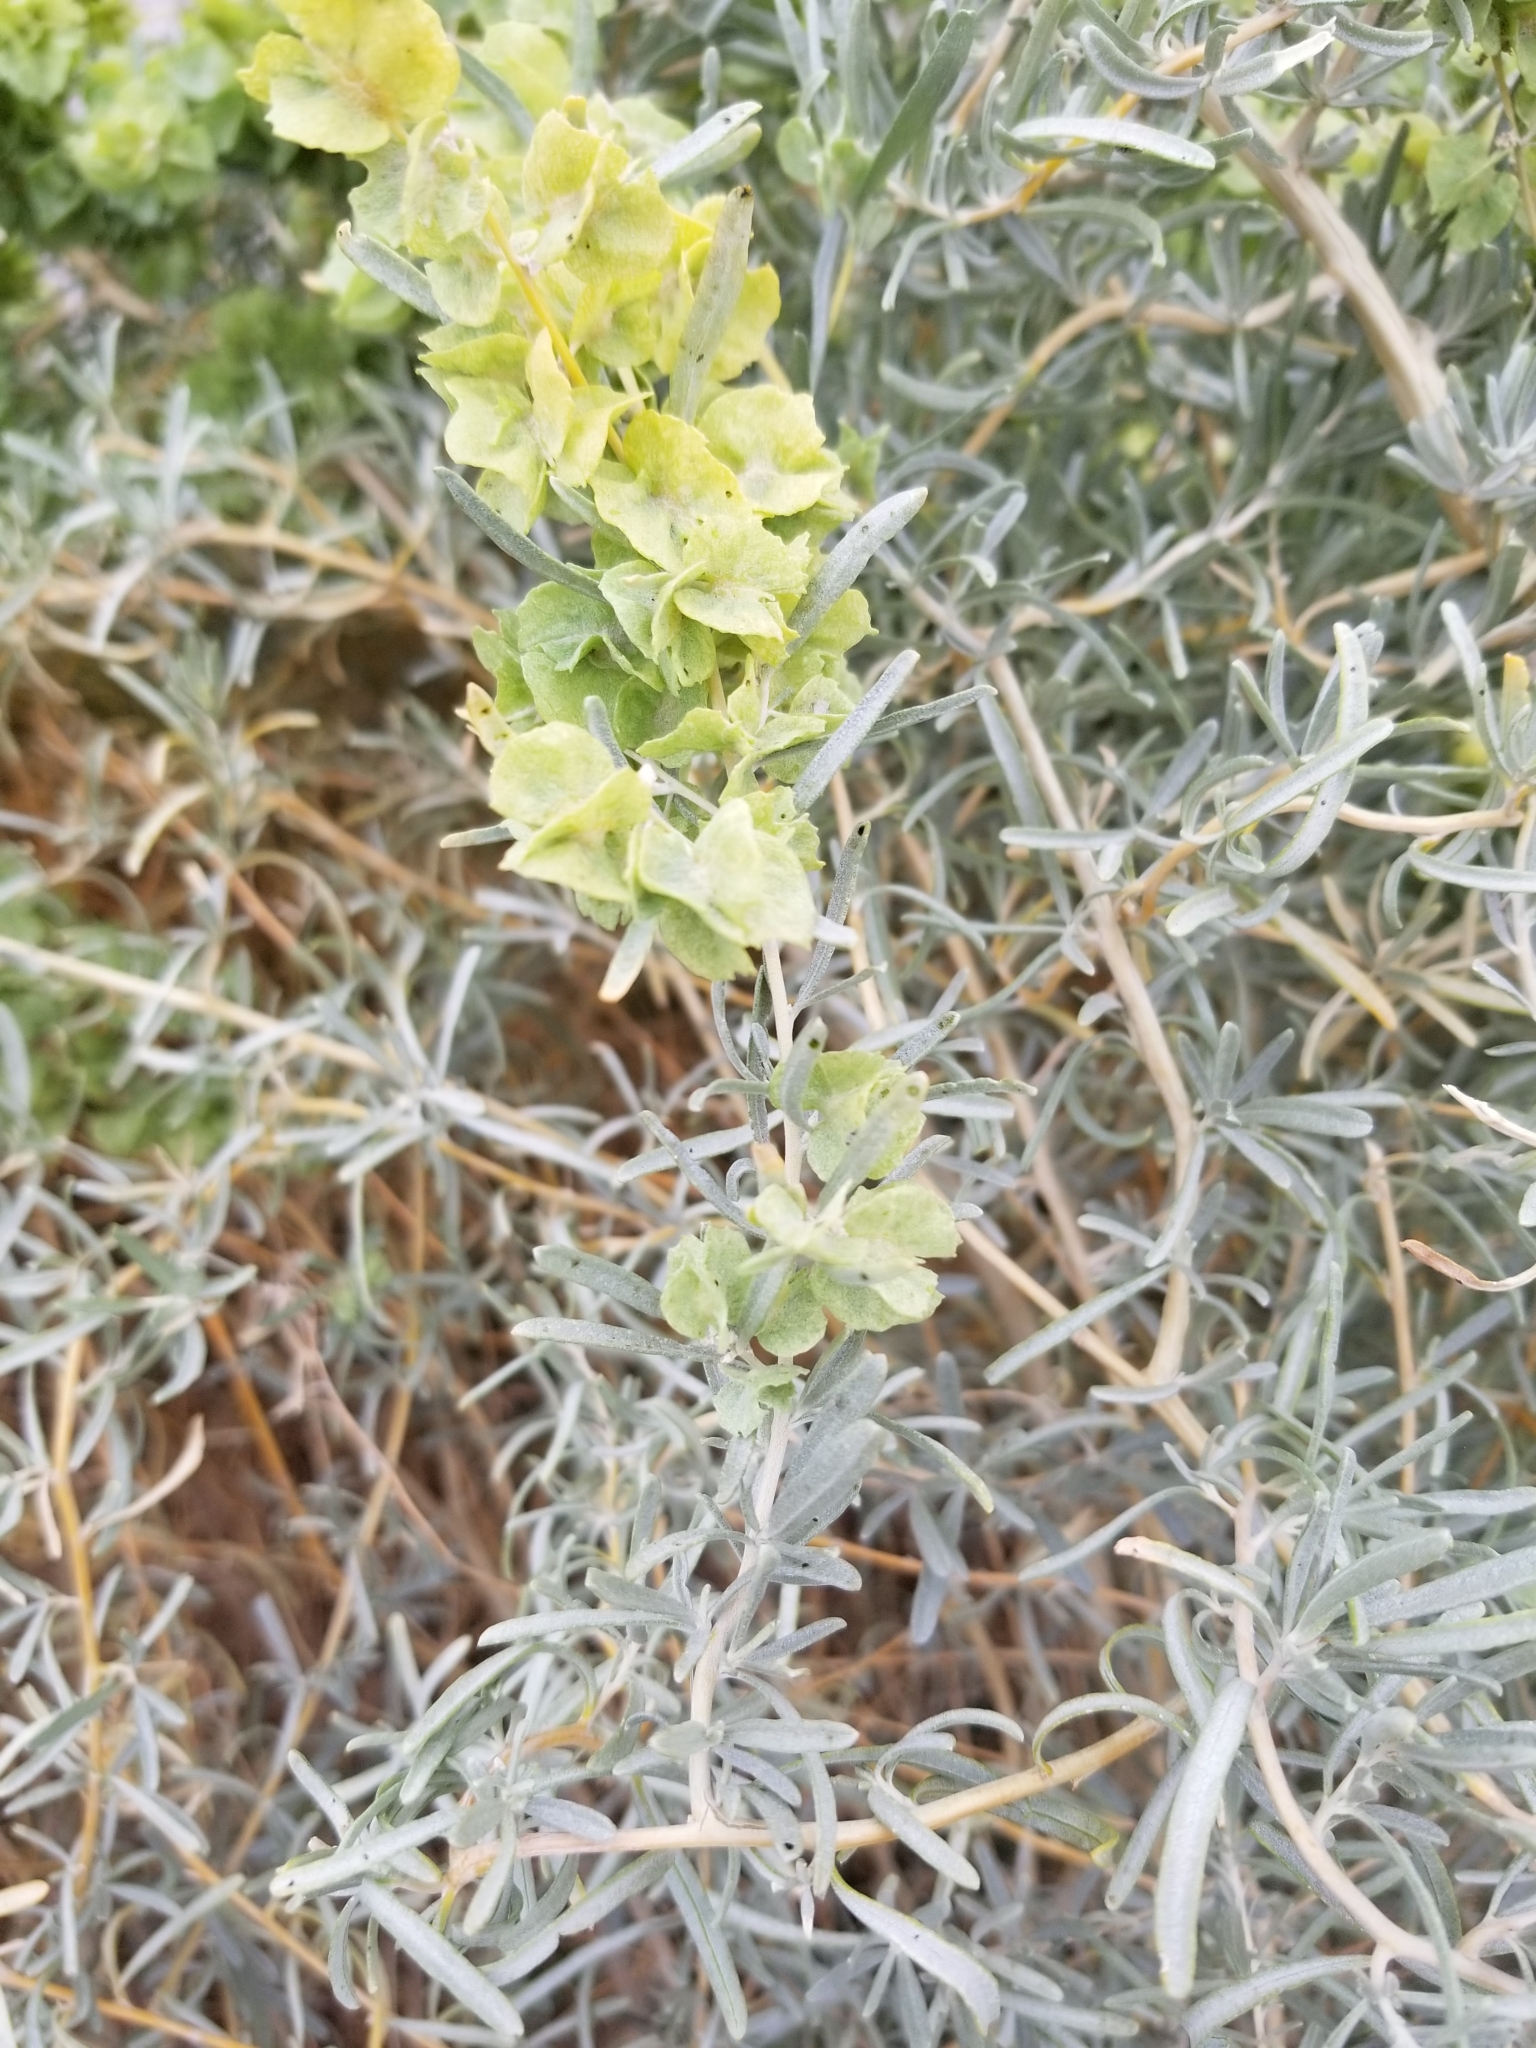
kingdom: Plantae
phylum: Tracheophyta
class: Magnoliopsida
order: Caryophyllales
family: Amaranthaceae
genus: Atriplex
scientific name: Atriplex canescens
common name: Four-wing saltbush
